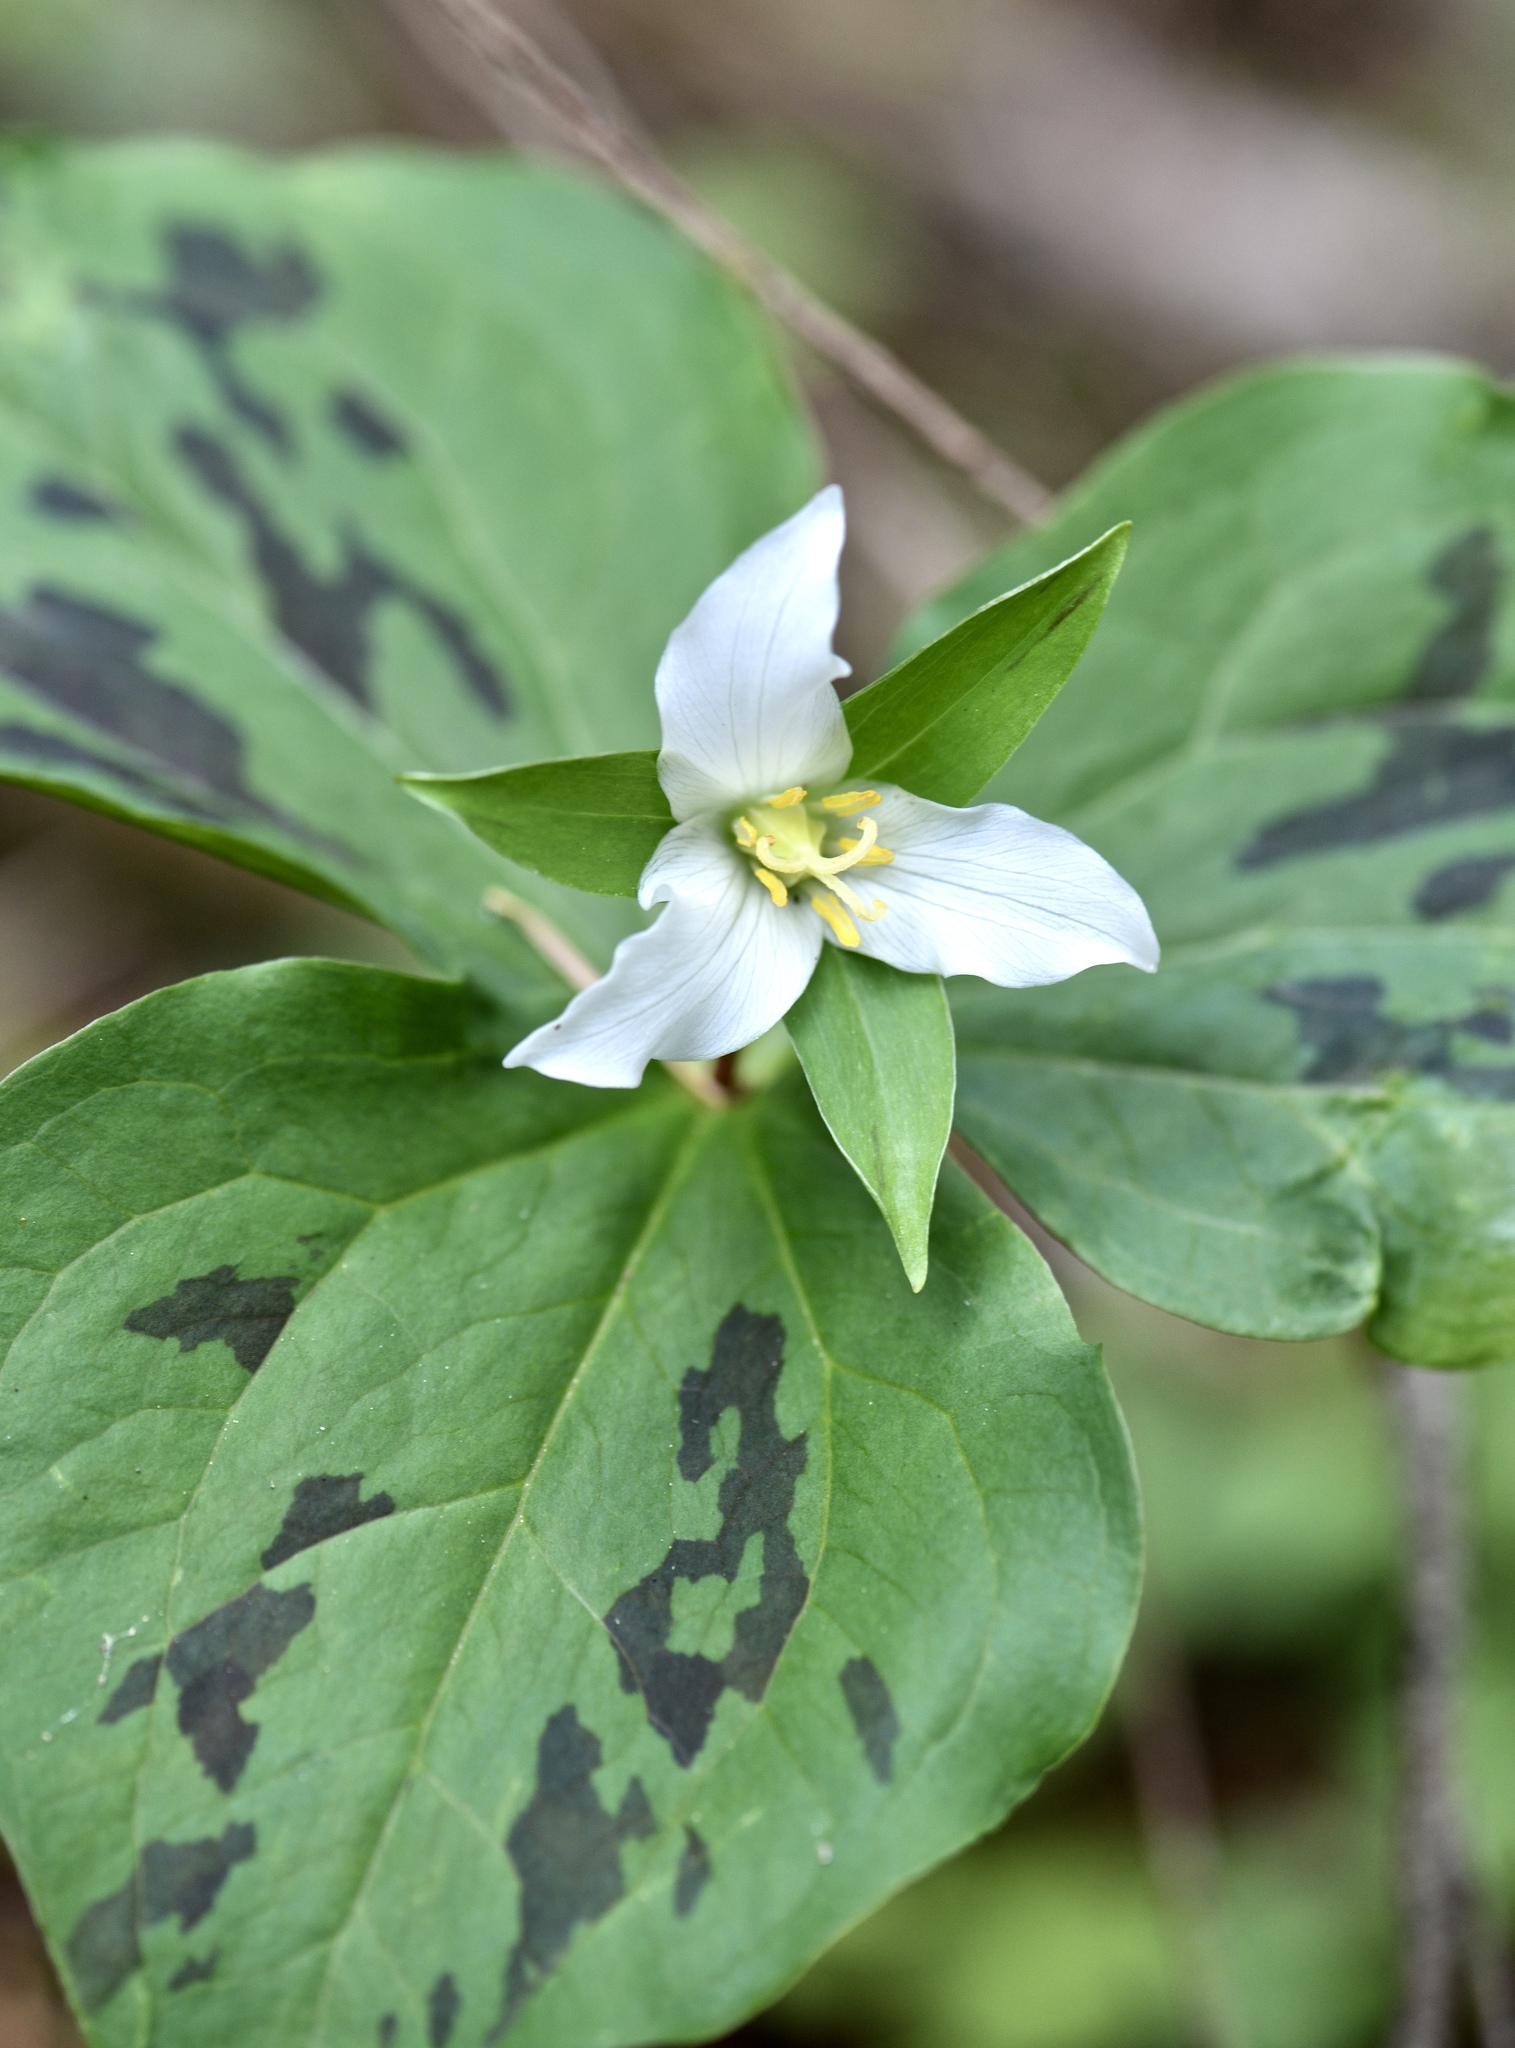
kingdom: Plantae
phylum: Tracheophyta
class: Liliopsida
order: Liliales
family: Melanthiaceae
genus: Trillium
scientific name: Trillium ovatum
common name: Pacific trillium
